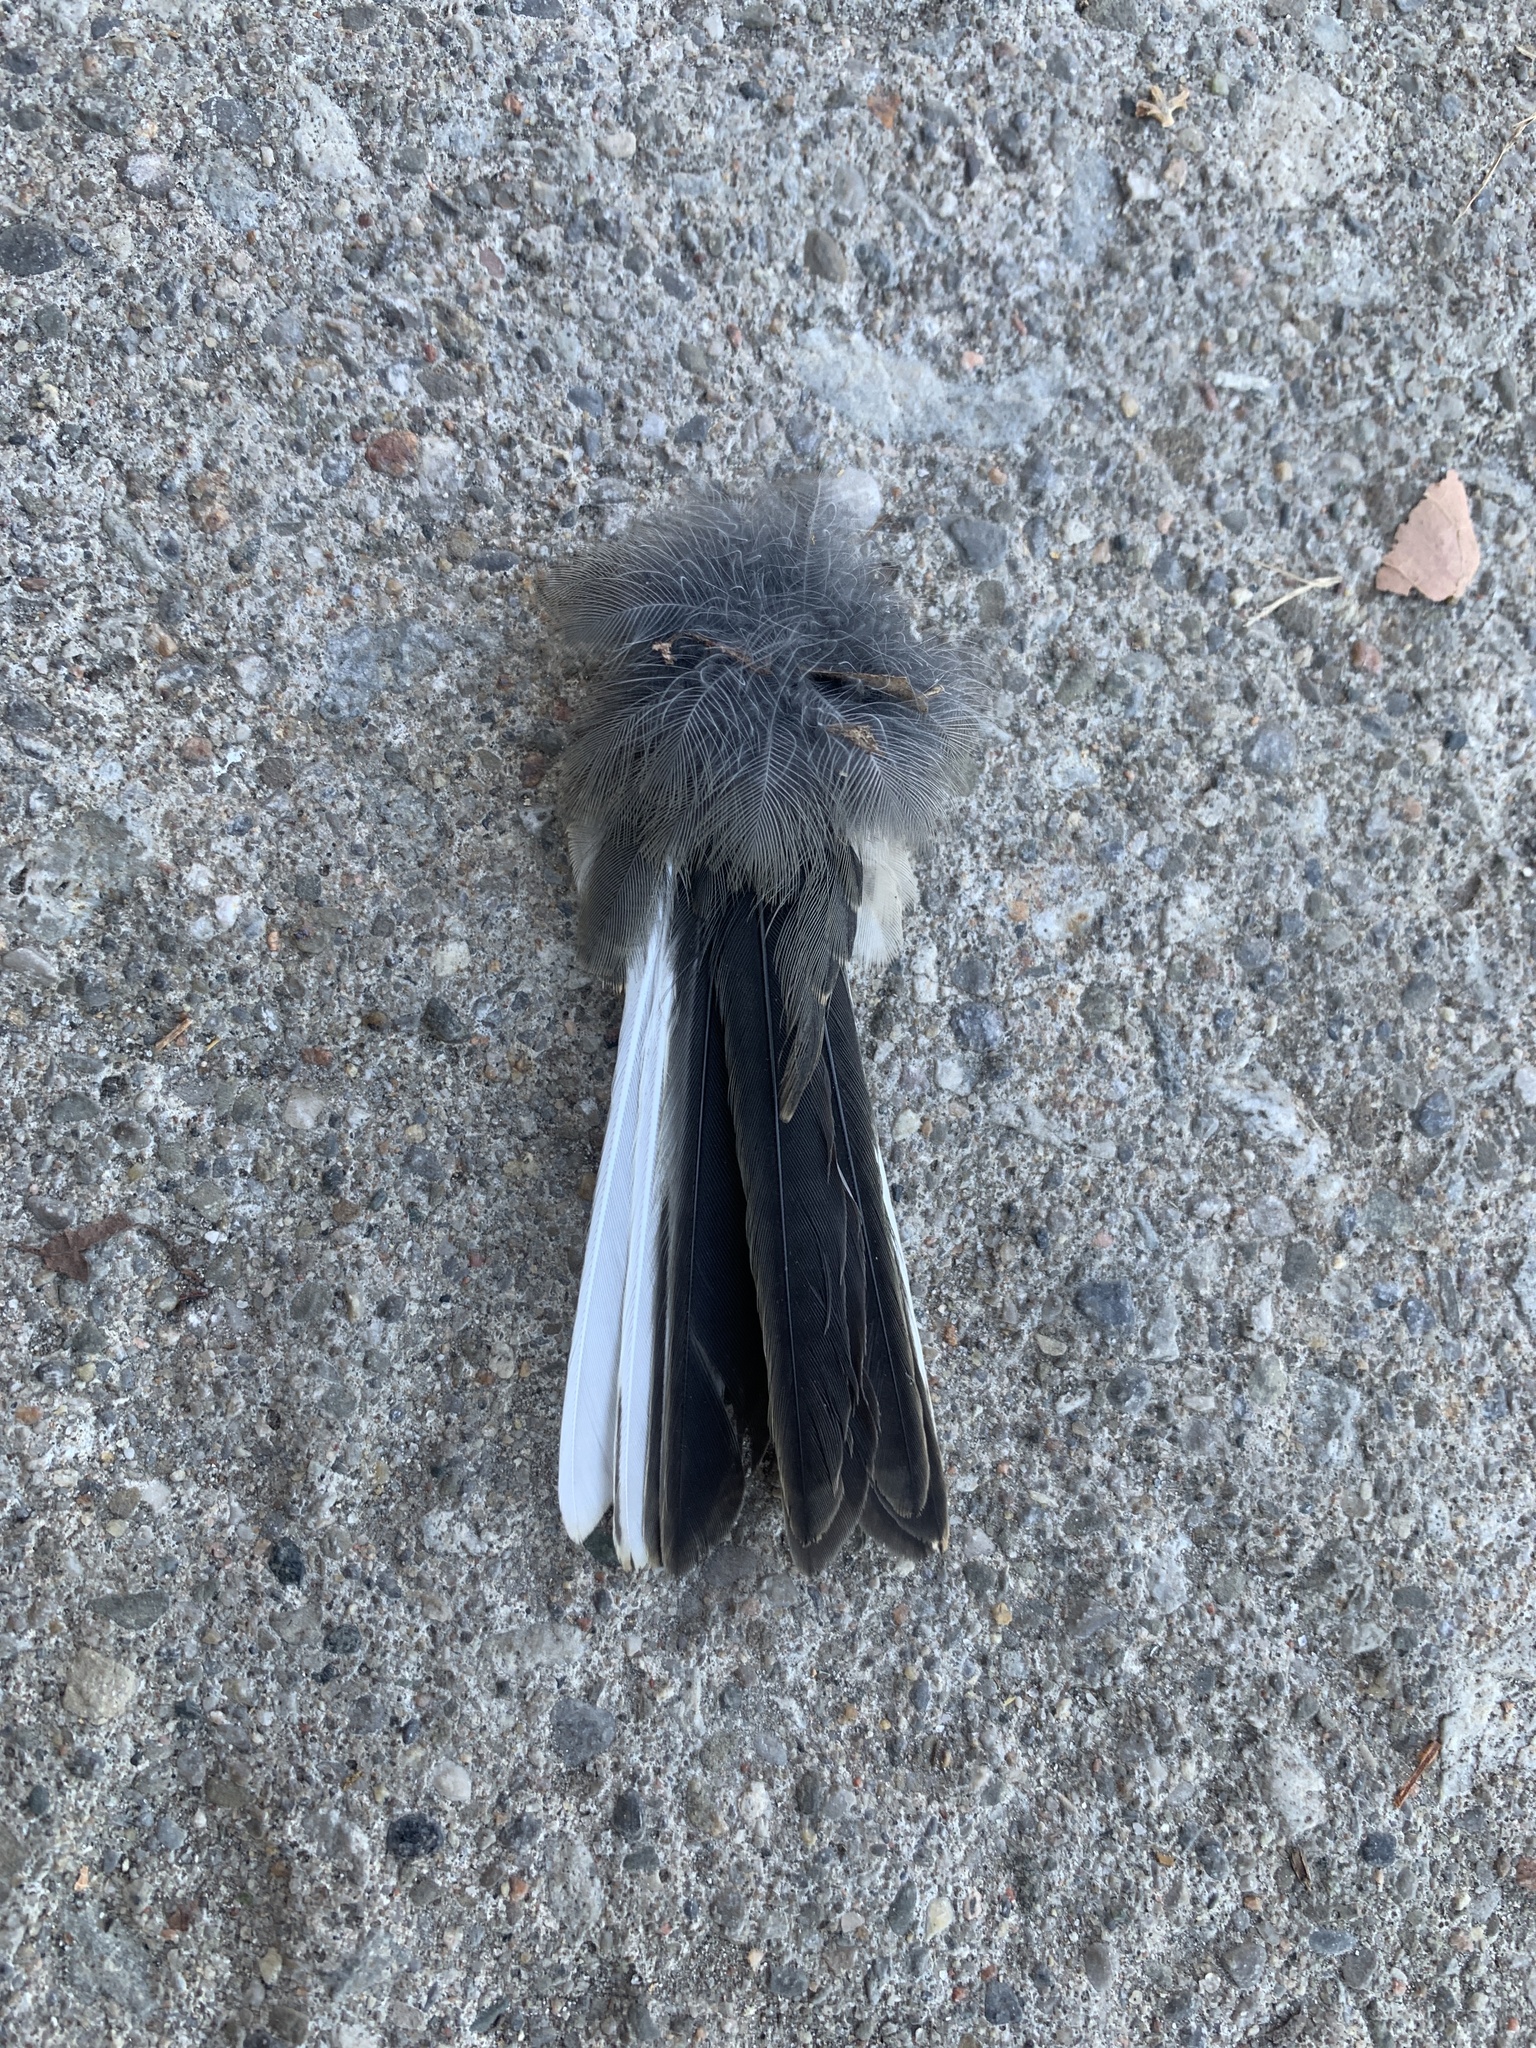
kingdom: Animalia
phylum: Chordata
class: Aves
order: Passeriformes
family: Passerellidae
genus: Junco
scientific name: Junco hyemalis
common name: Dark-eyed junco
